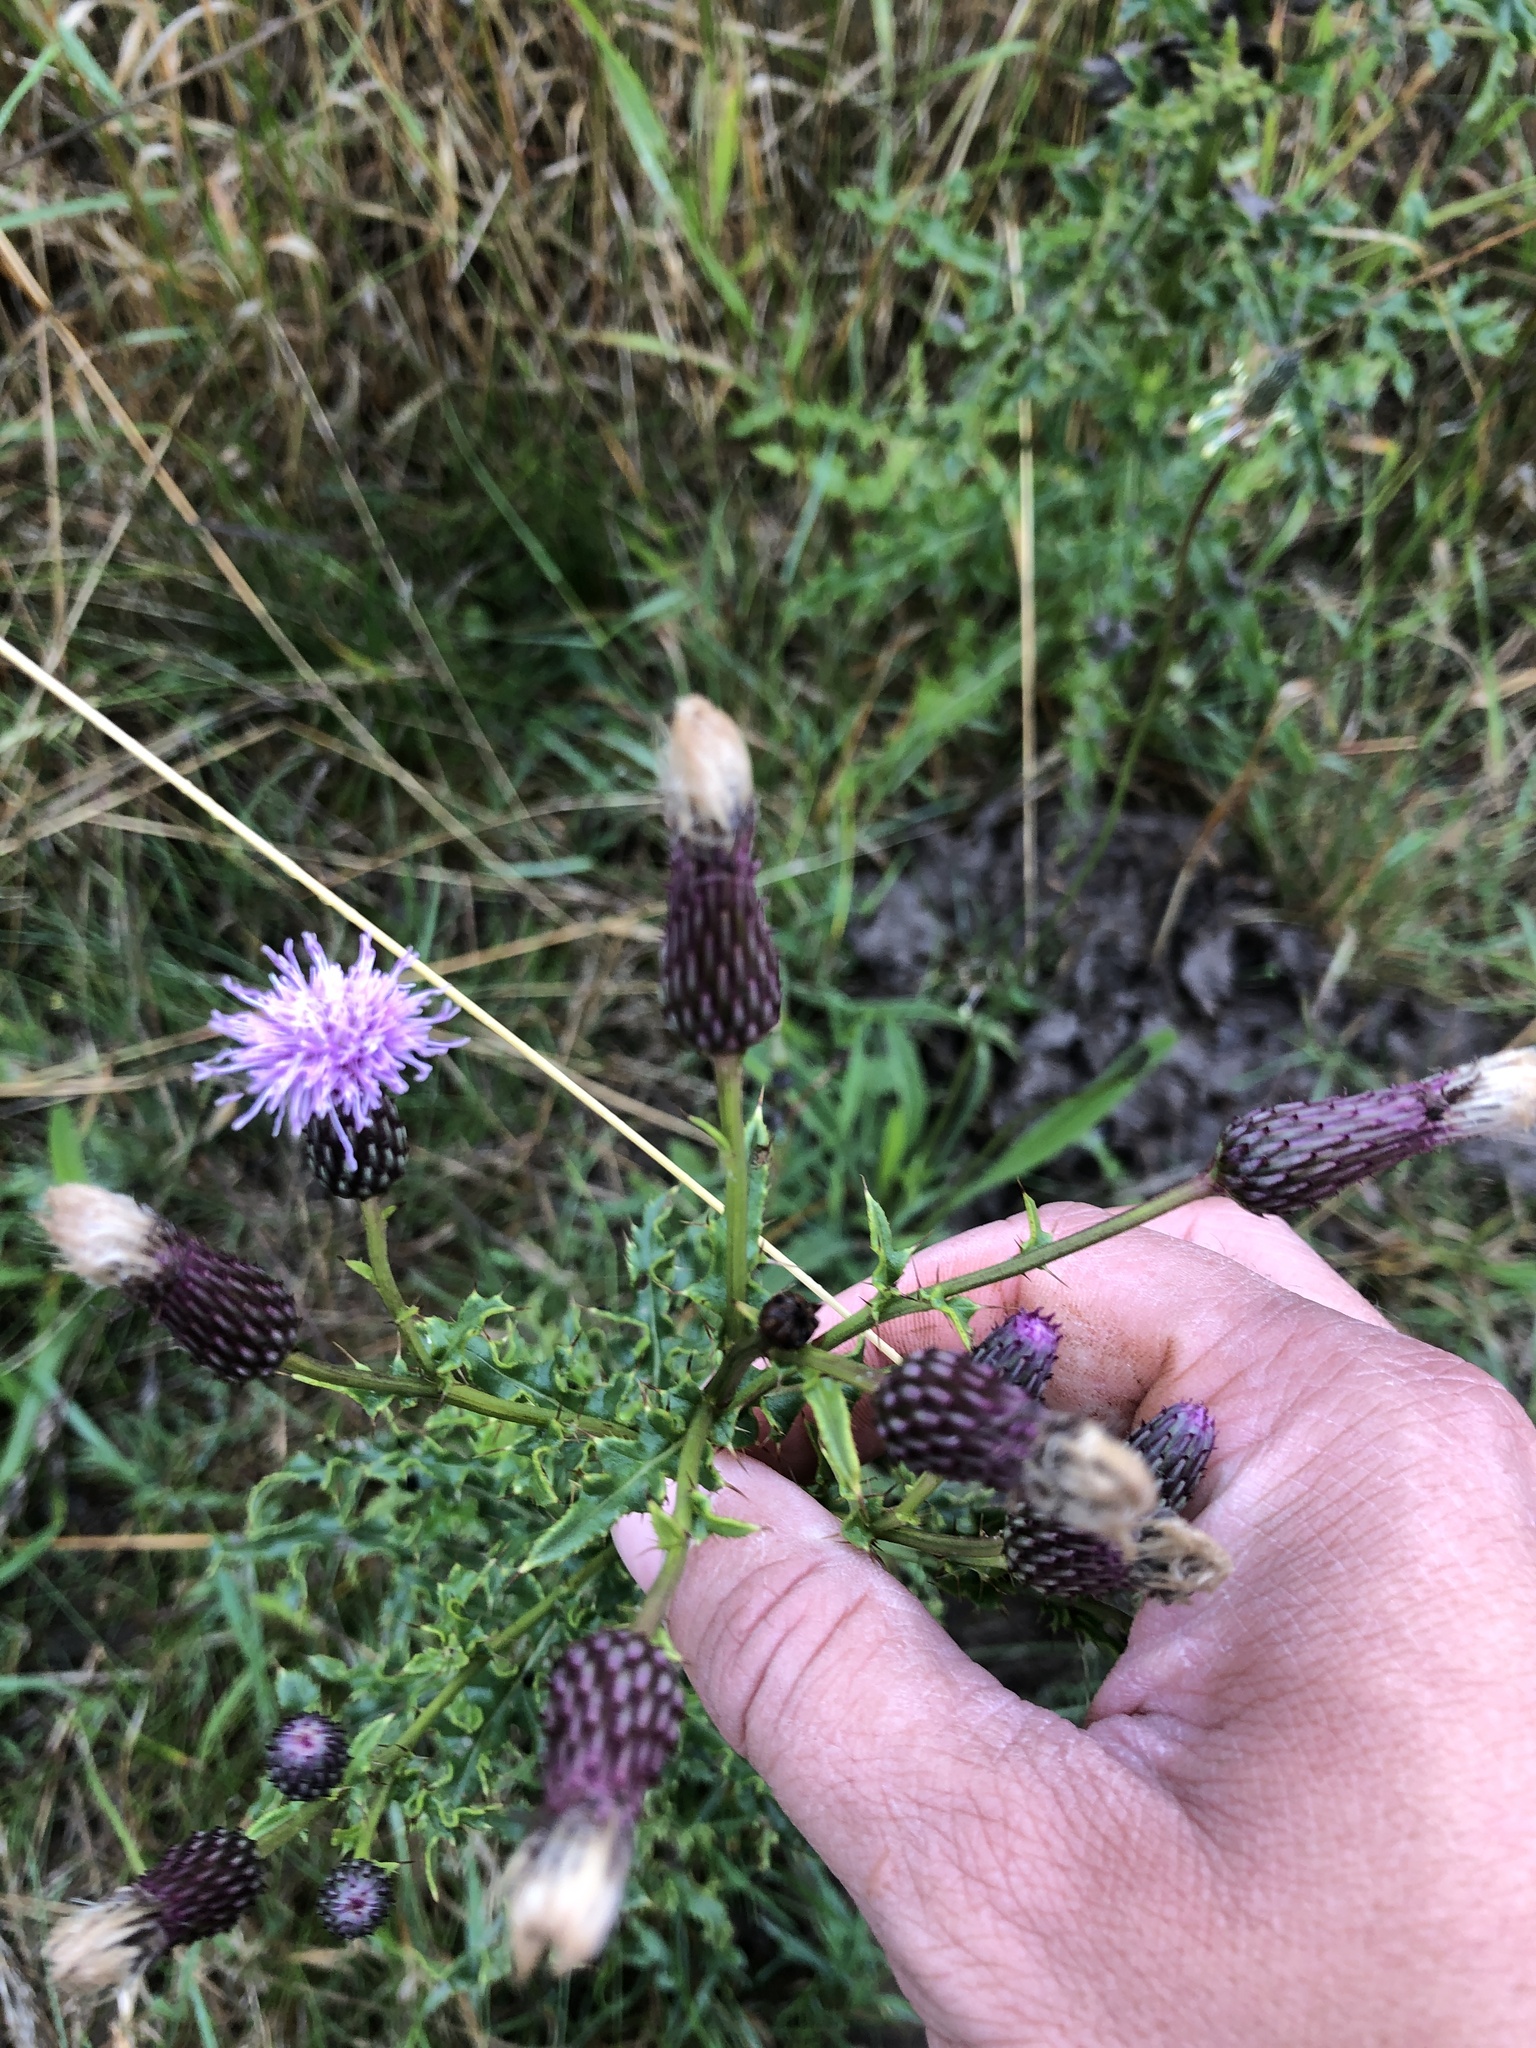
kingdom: Plantae
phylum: Tracheophyta
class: Magnoliopsida
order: Asterales
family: Asteraceae
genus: Cirsium
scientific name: Cirsium arvense
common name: Creeping thistle
